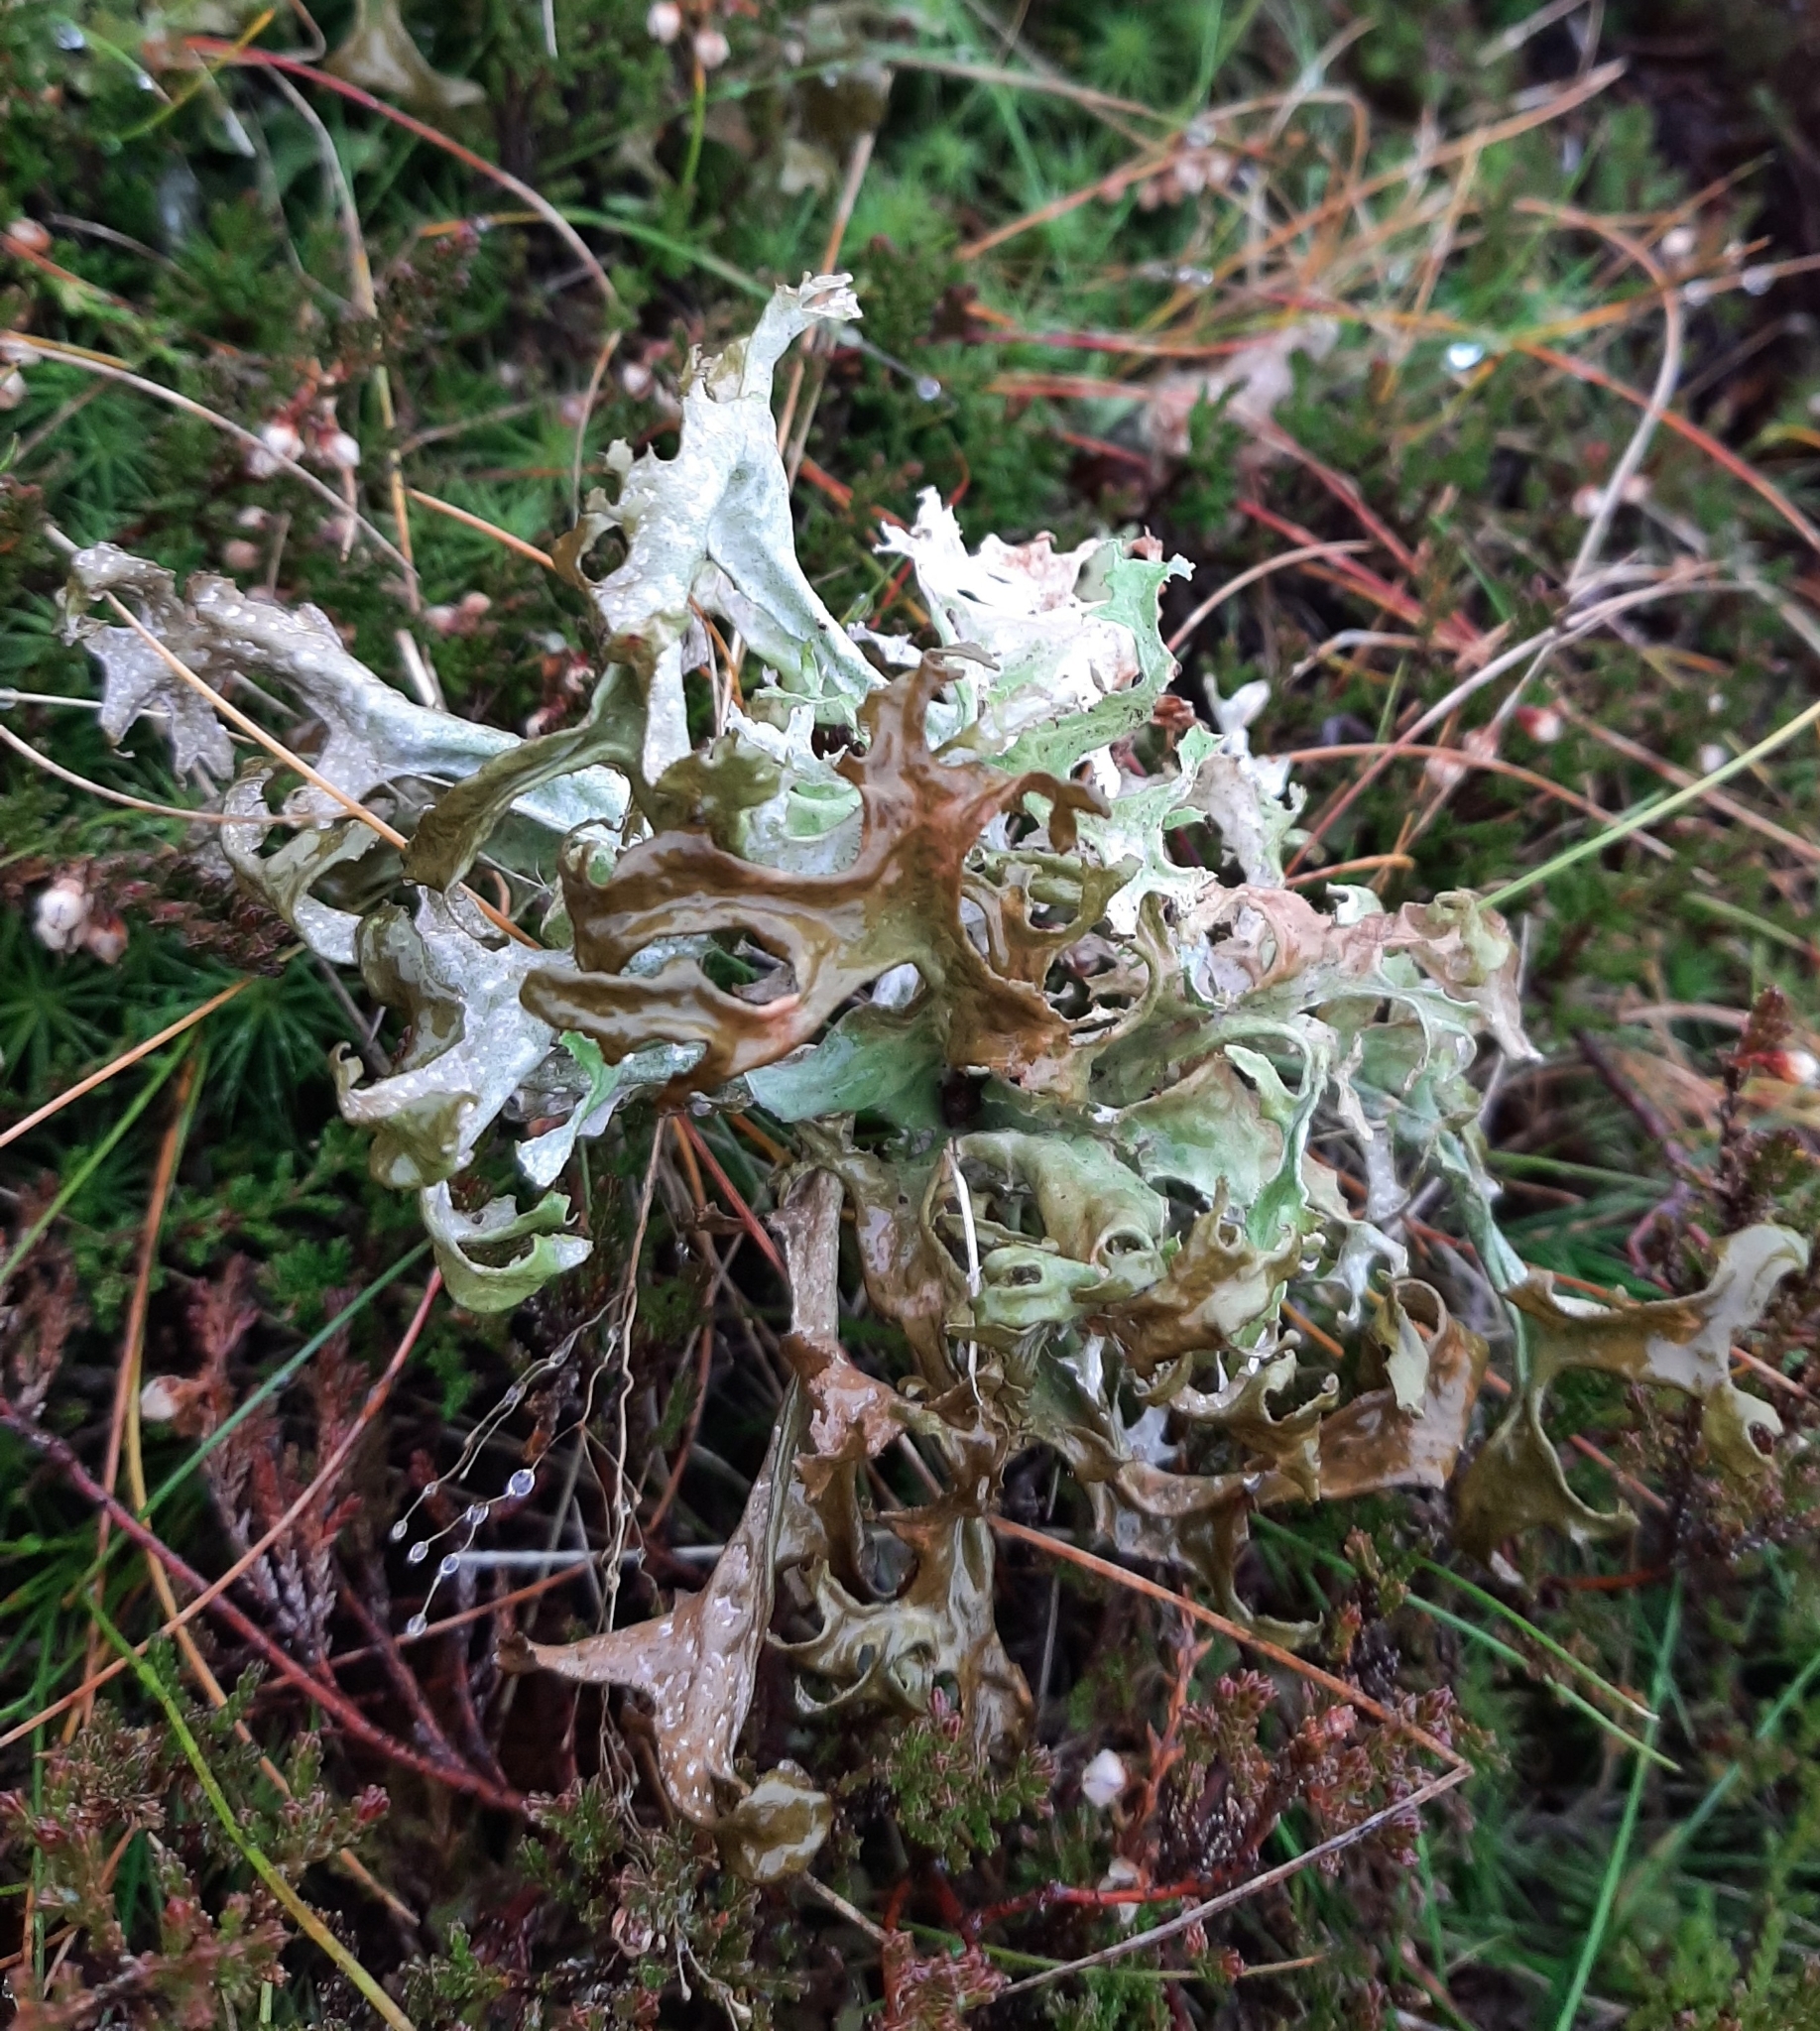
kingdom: Fungi
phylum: Ascomycota
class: Lecanoromycetes
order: Lecanorales
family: Parmeliaceae
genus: Cetraria
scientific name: Cetraria islandica
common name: Iceland lichen
